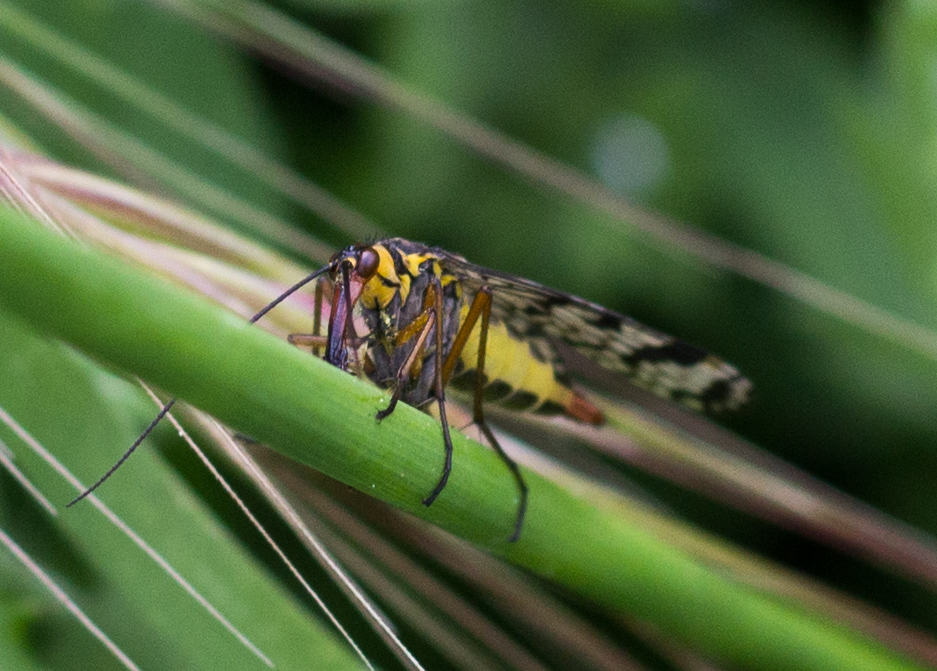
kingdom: Animalia
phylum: Arthropoda
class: Insecta
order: Mecoptera
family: Panorpidae
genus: Panorpa
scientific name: Panorpa meridionalis
